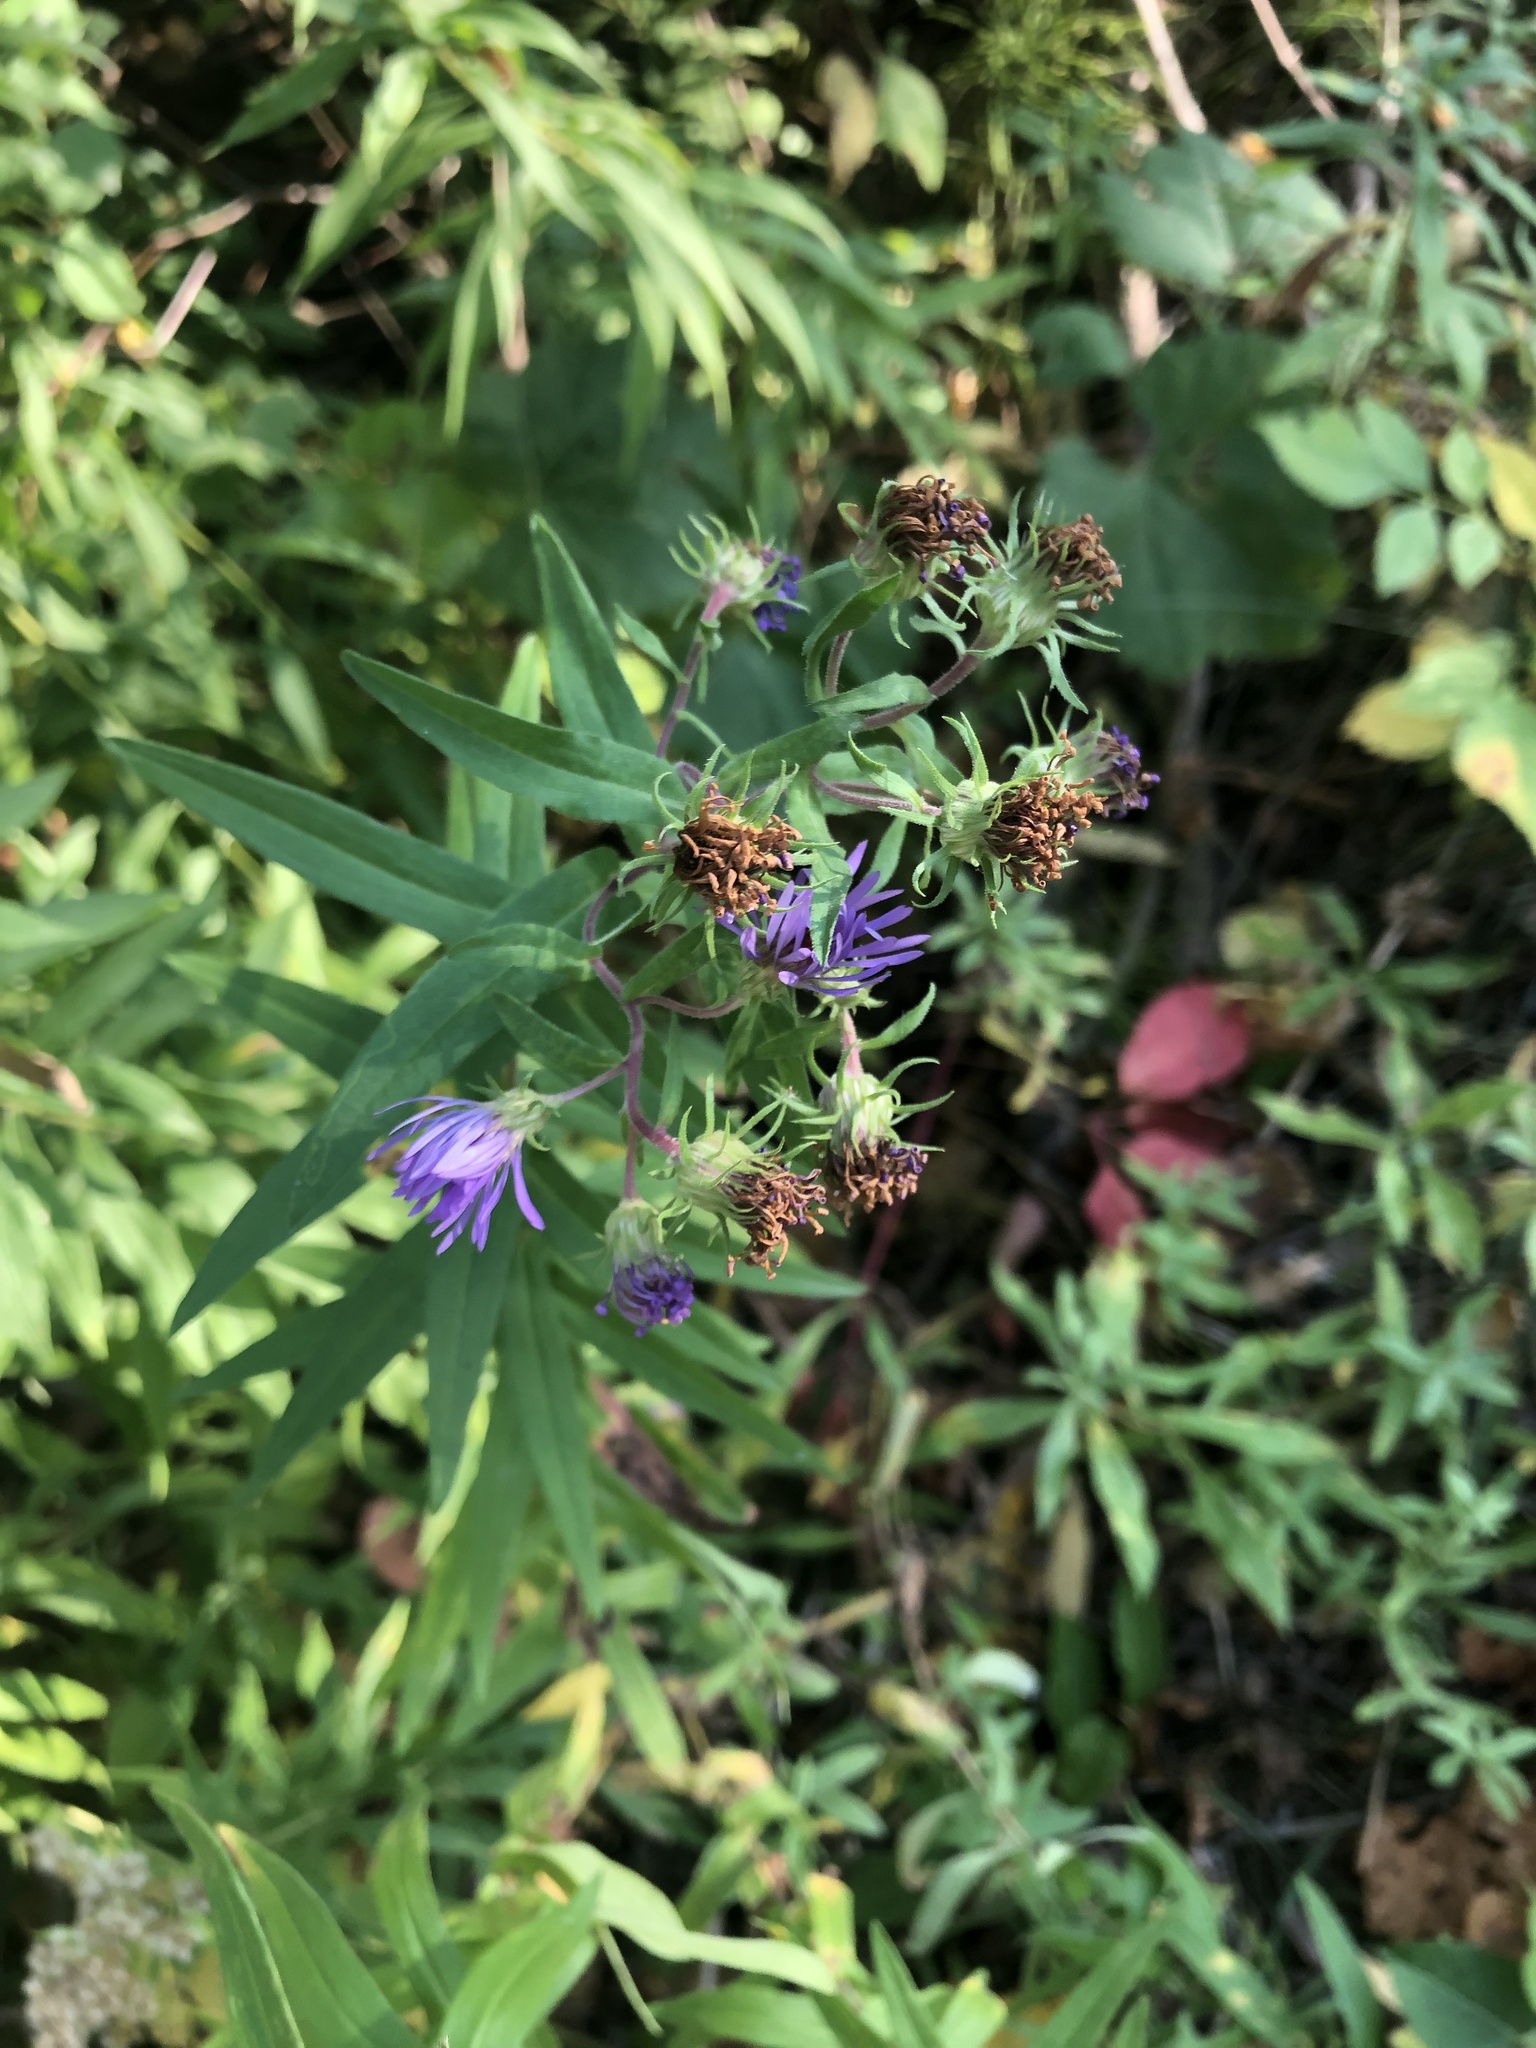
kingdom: Plantae
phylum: Tracheophyta
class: Magnoliopsida
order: Asterales
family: Asteraceae
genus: Symphyotrichum
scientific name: Symphyotrichum novae-angliae
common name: Michaelmas daisy
